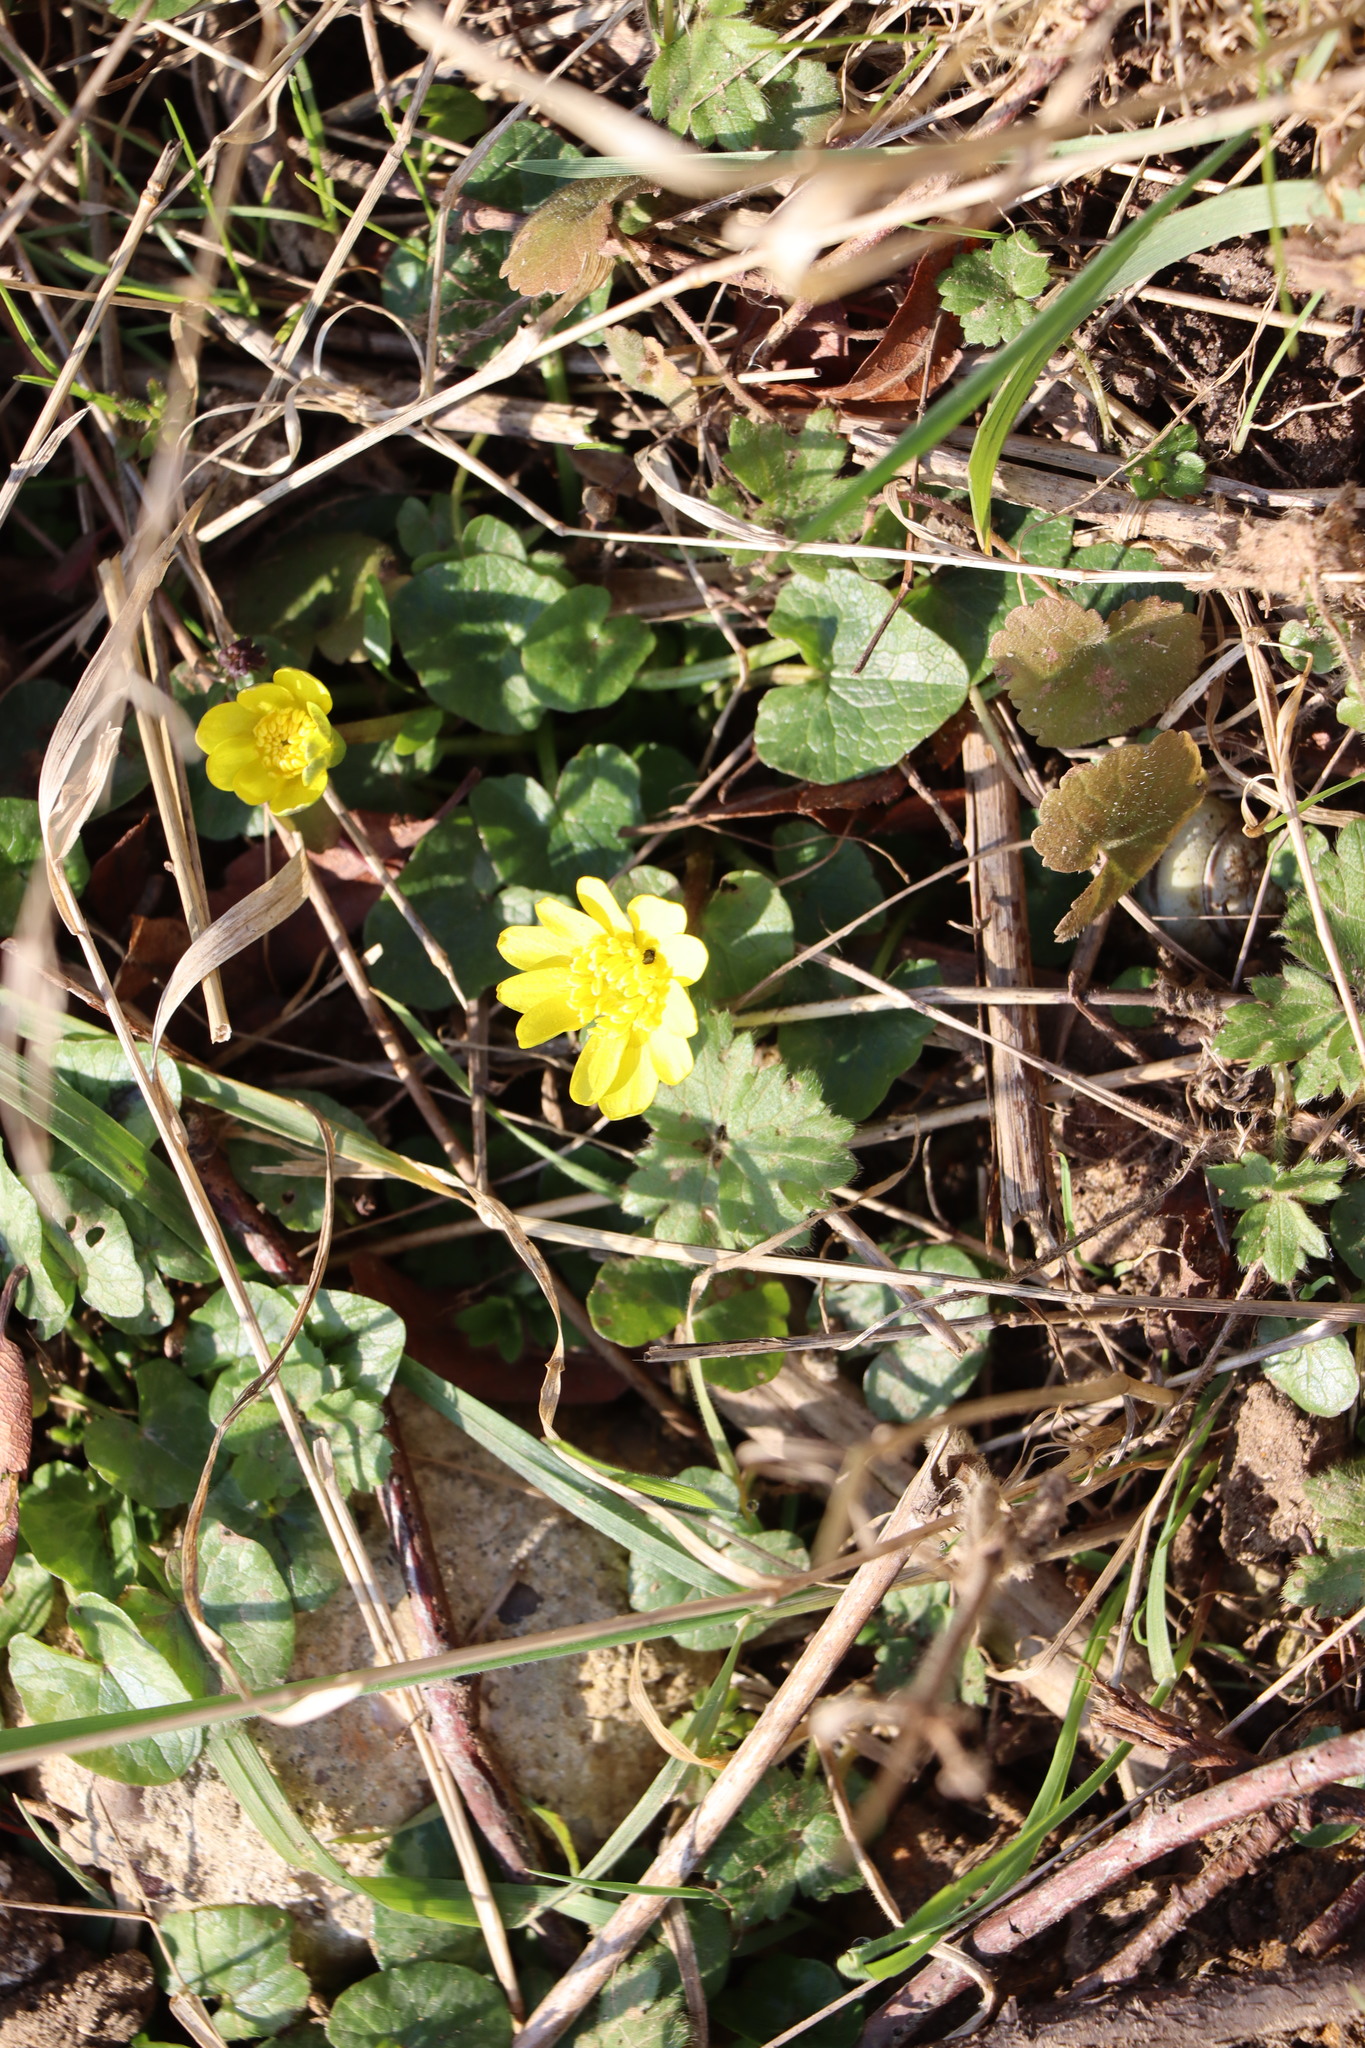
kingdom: Plantae
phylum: Tracheophyta
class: Magnoliopsida
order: Ranunculales
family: Ranunculaceae
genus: Ficaria
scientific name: Ficaria verna
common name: Lesser celandine
